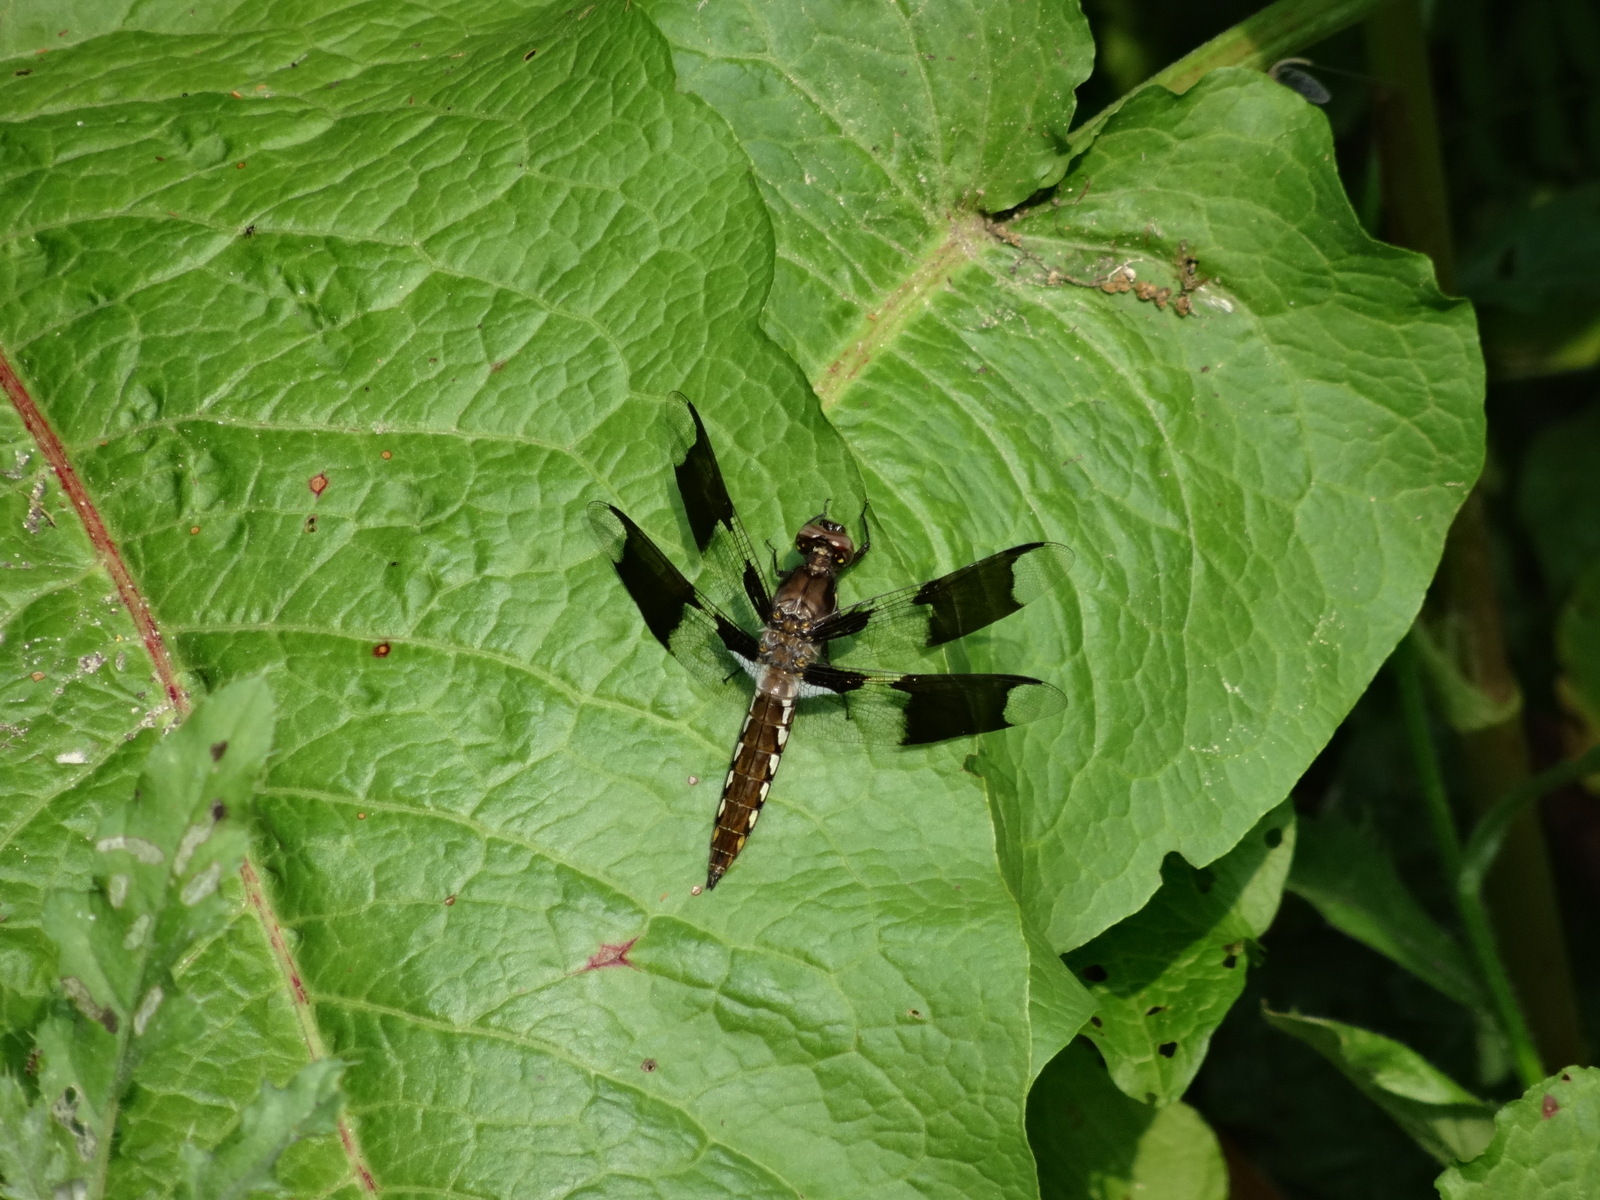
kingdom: Animalia
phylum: Arthropoda
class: Insecta
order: Odonata
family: Libellulidae
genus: Plathemis
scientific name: Plathemis lydia
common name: Common whitetail
